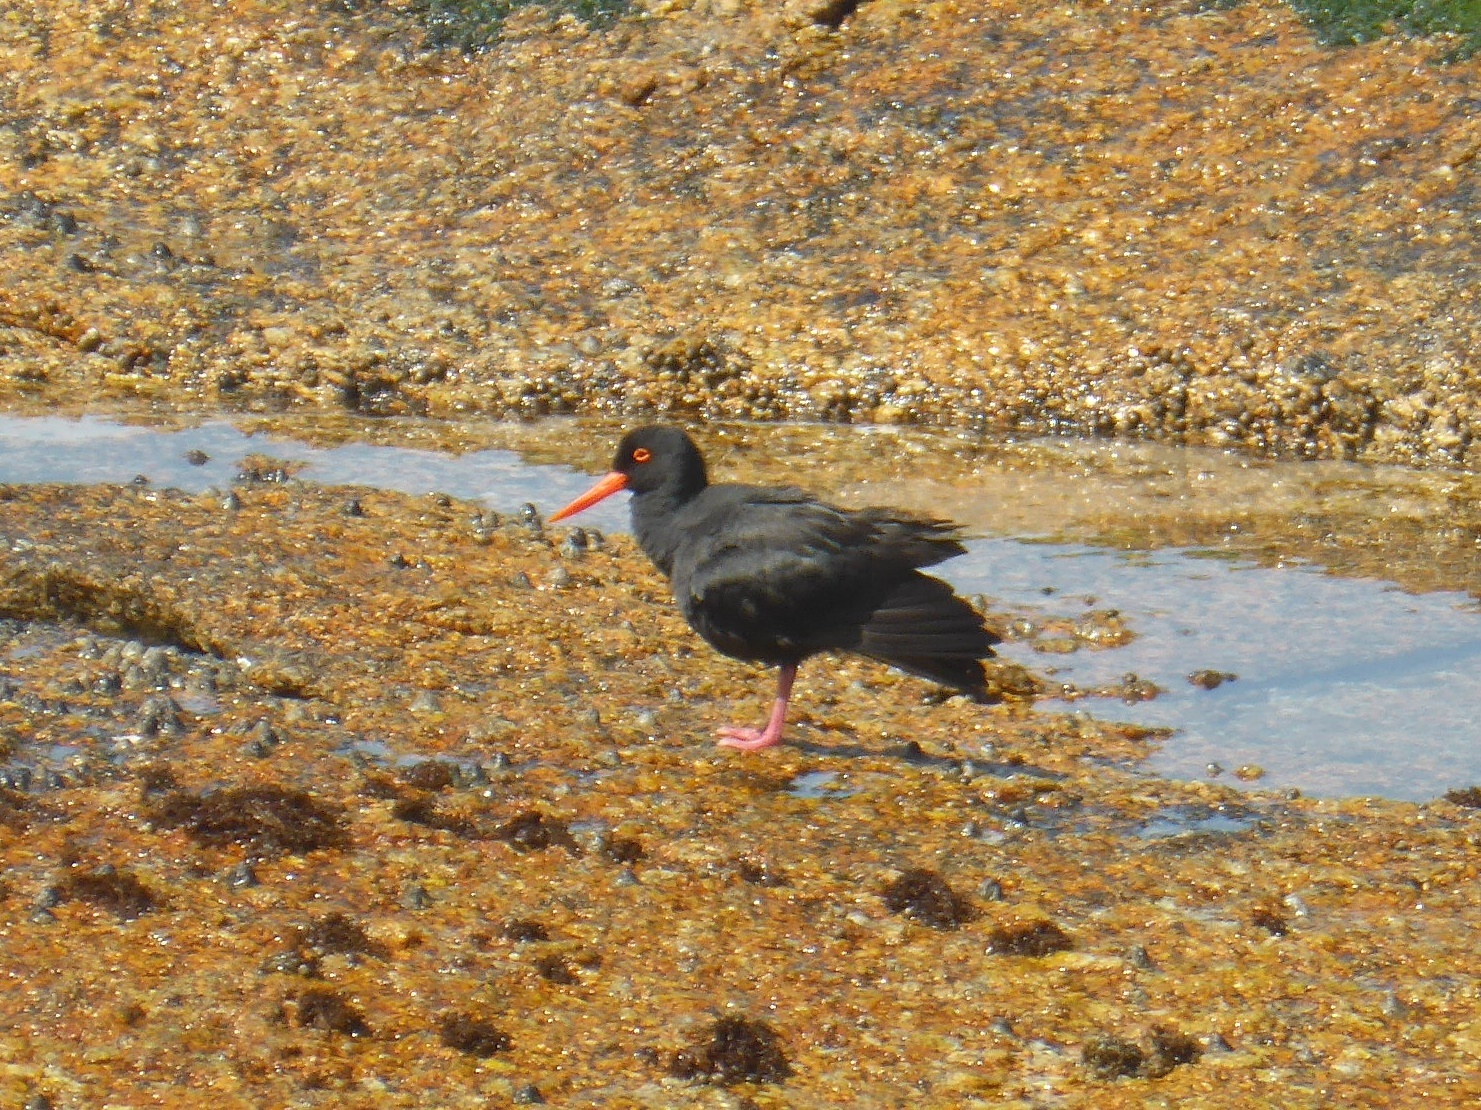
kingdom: Animalia
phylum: Chordata
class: Aves
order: Charadriiformes
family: Haematopodidae
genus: Haematopus
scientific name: Haematopus moquini
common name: African oystercatcher
